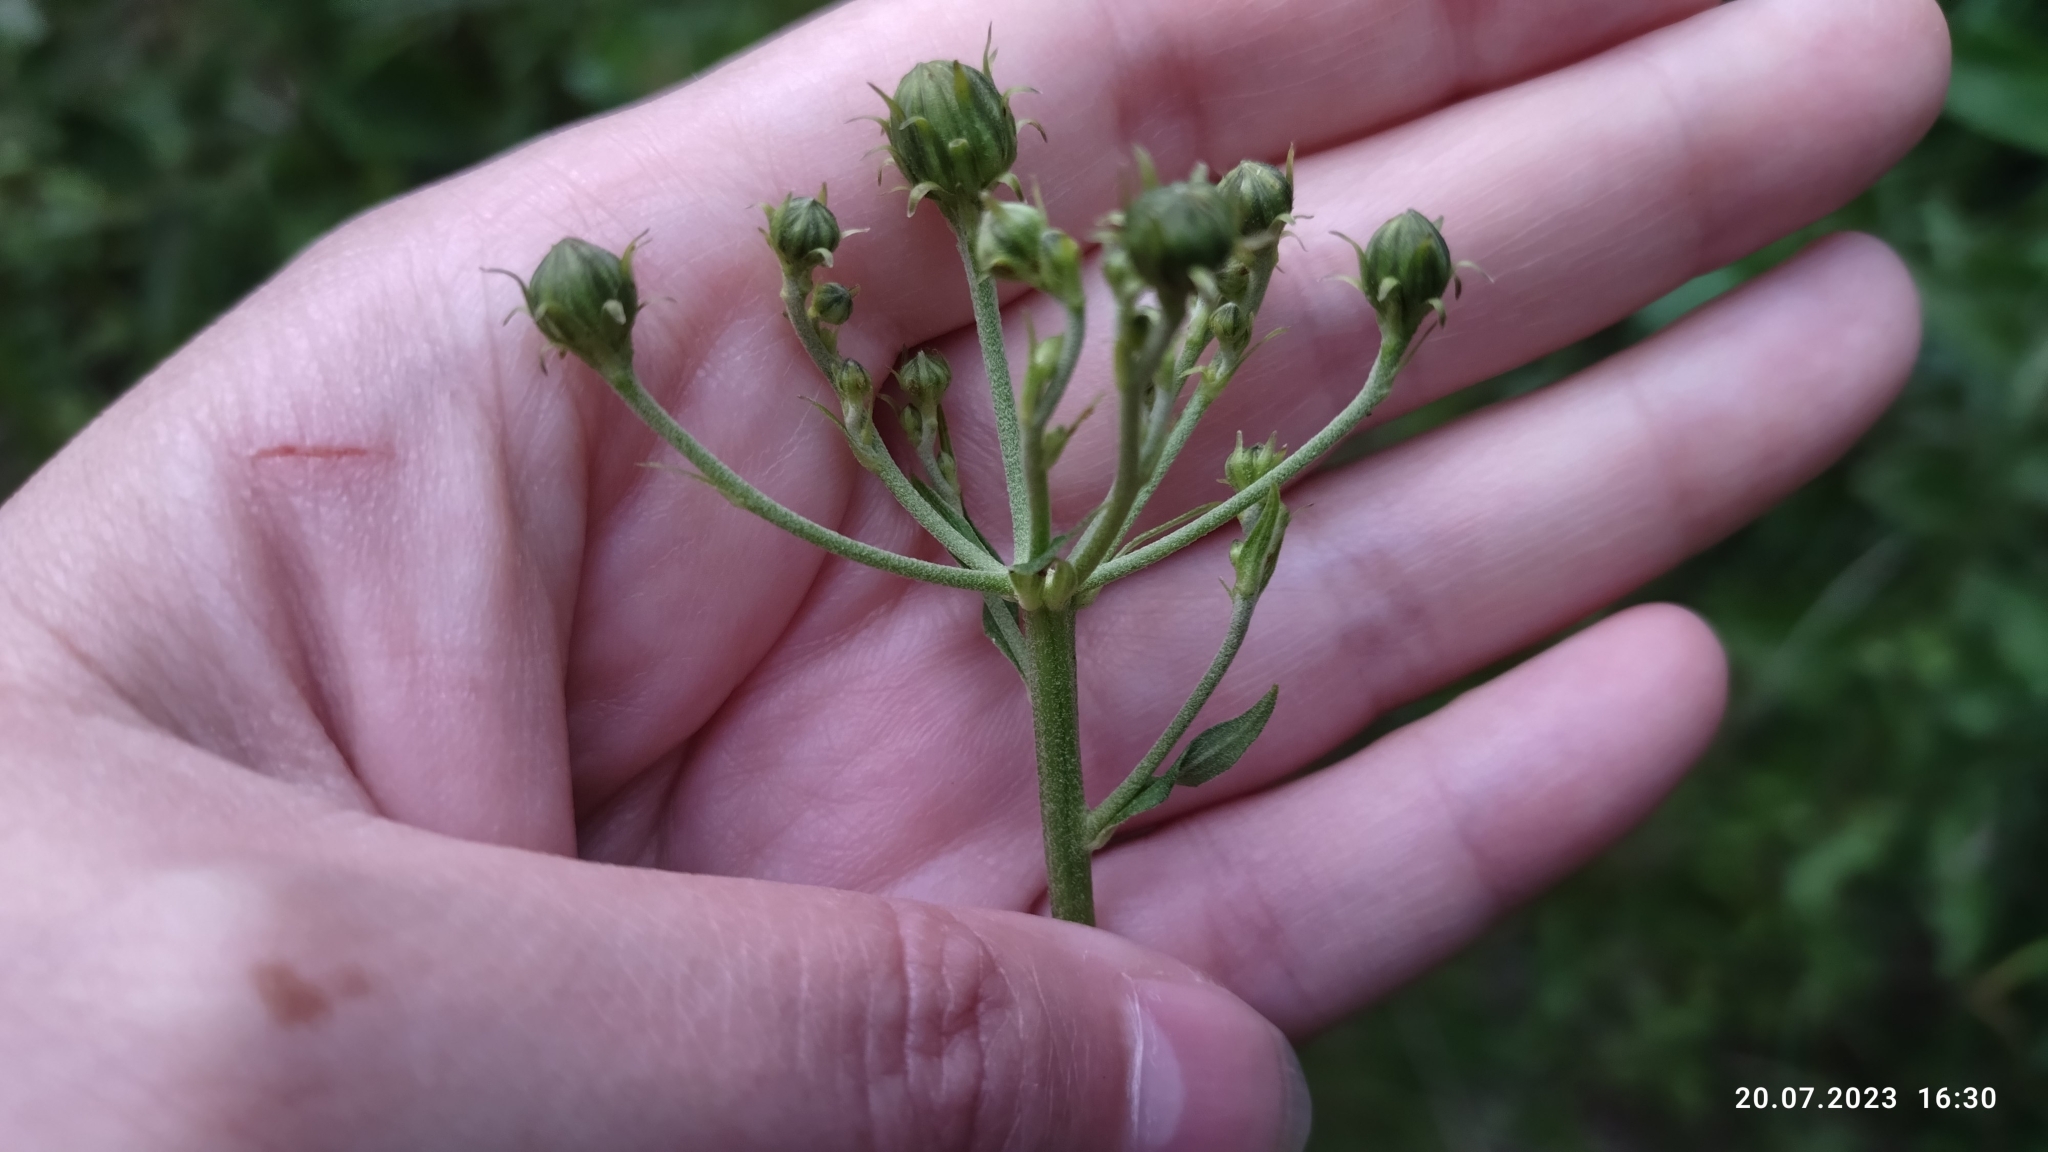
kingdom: Plantae
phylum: Tracheophyta
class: Magnoliopsida
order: Asterales
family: Asteraceae
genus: Hieracium
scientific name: Hieracium umbellatum
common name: Northern hawkweed
